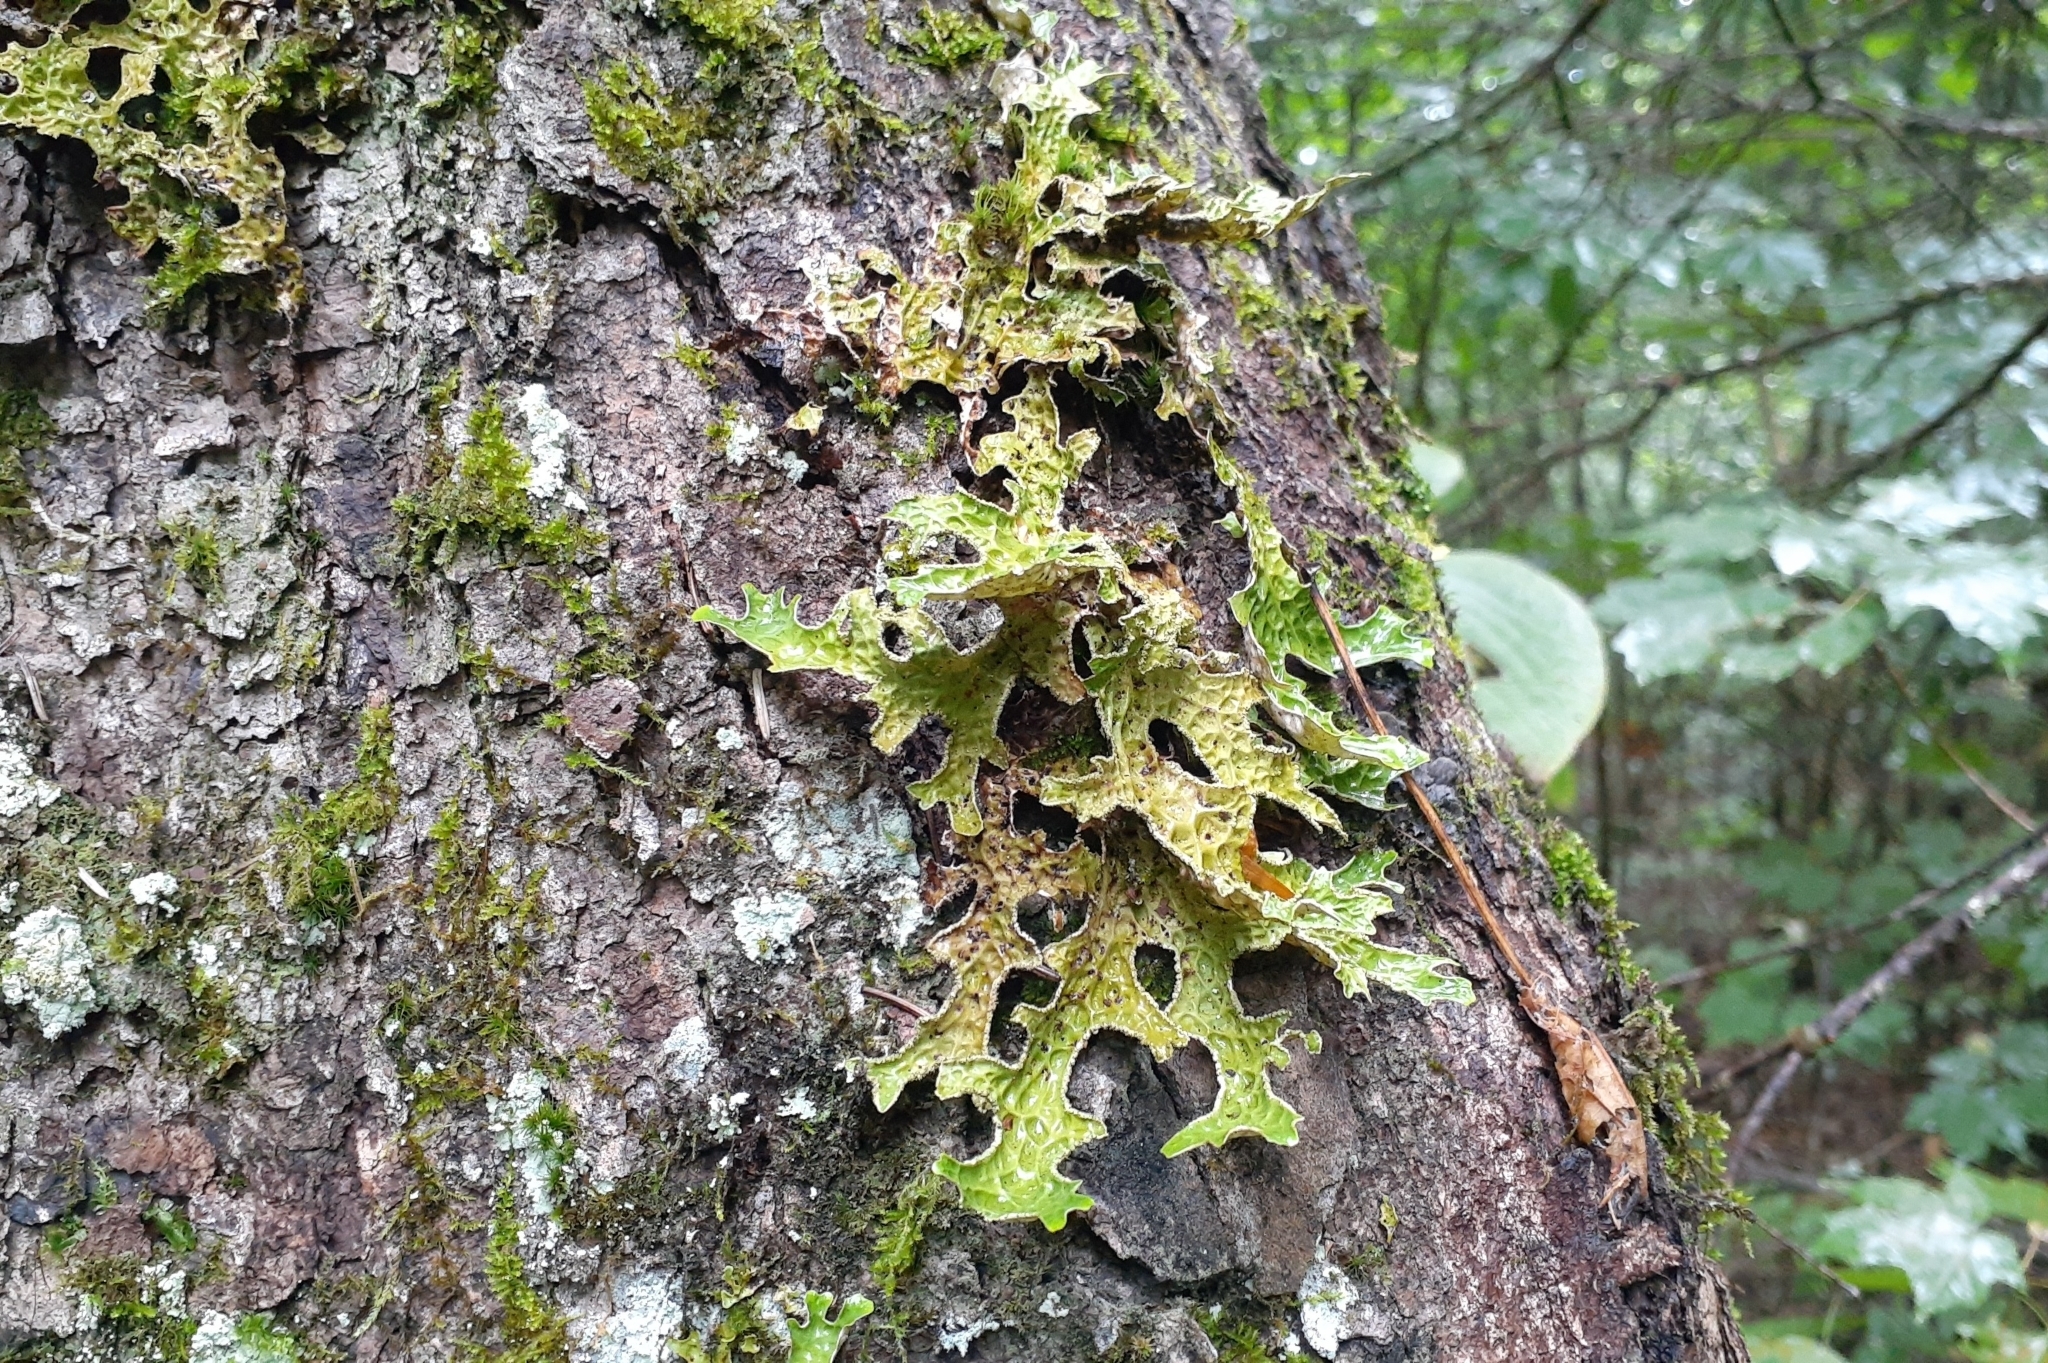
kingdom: Fungi
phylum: Ascomycota
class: Lecanoromycetes
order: Peltigerales
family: Lobariaceae
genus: Lobaria
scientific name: Lobaria pulmonaria
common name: Lungwort
